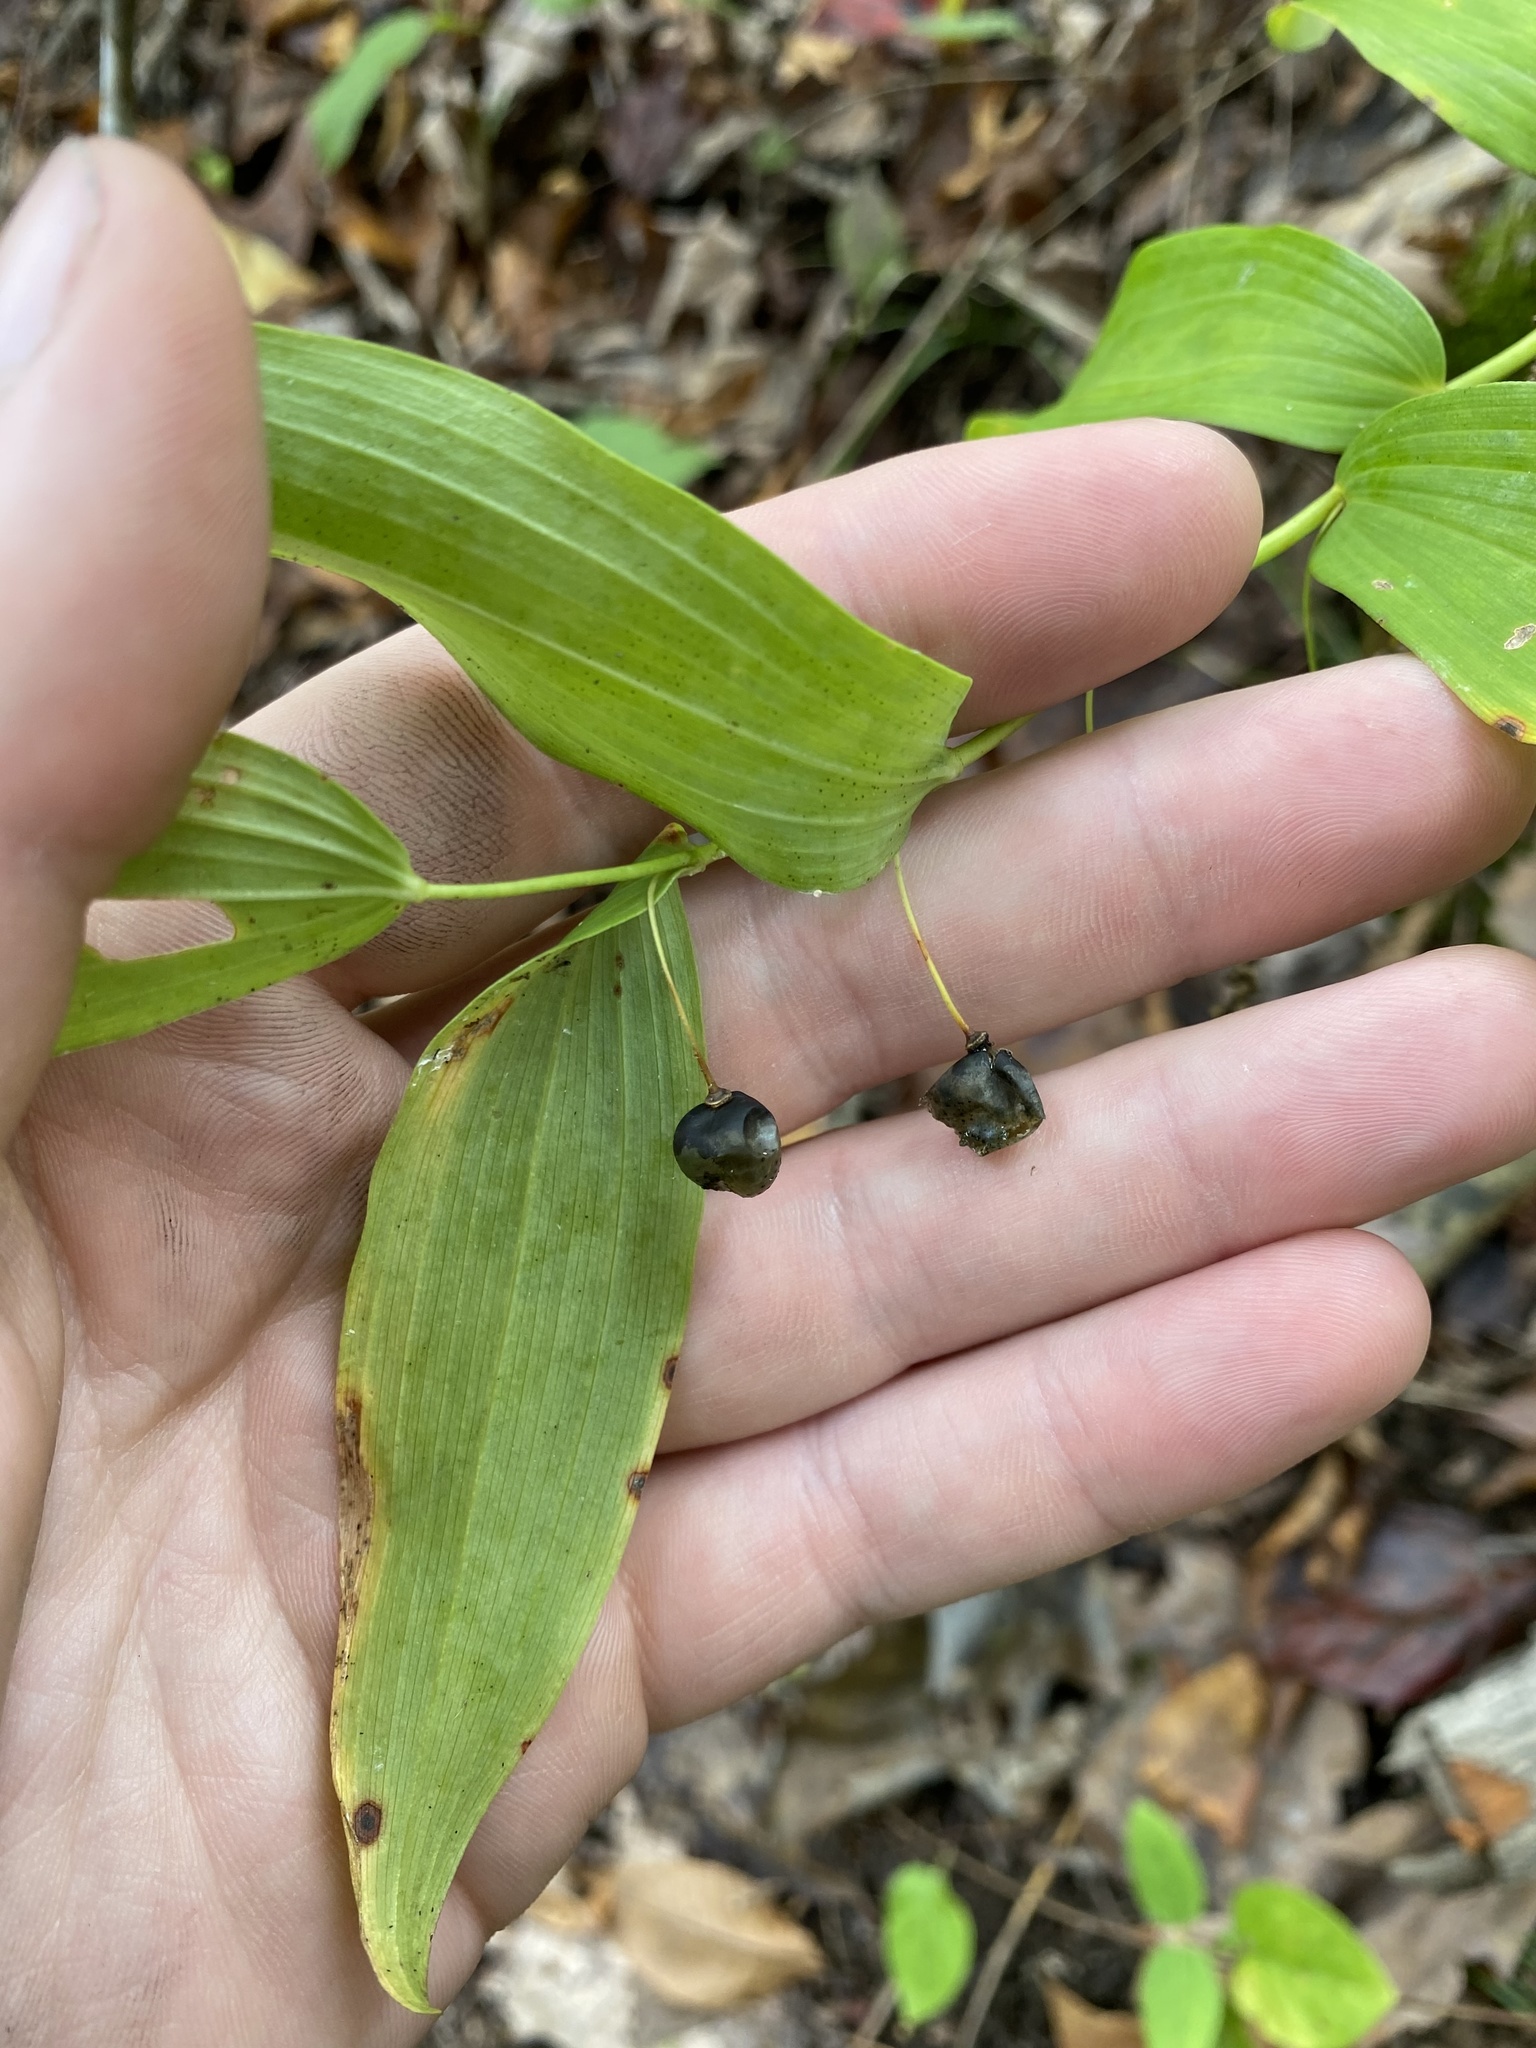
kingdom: Plantae
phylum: Tracheophyta
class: Liliopsida
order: Asparagales
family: Asparagaceae
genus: Polygonatum
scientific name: Polygonatum biflorum
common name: American solomon's-seal
